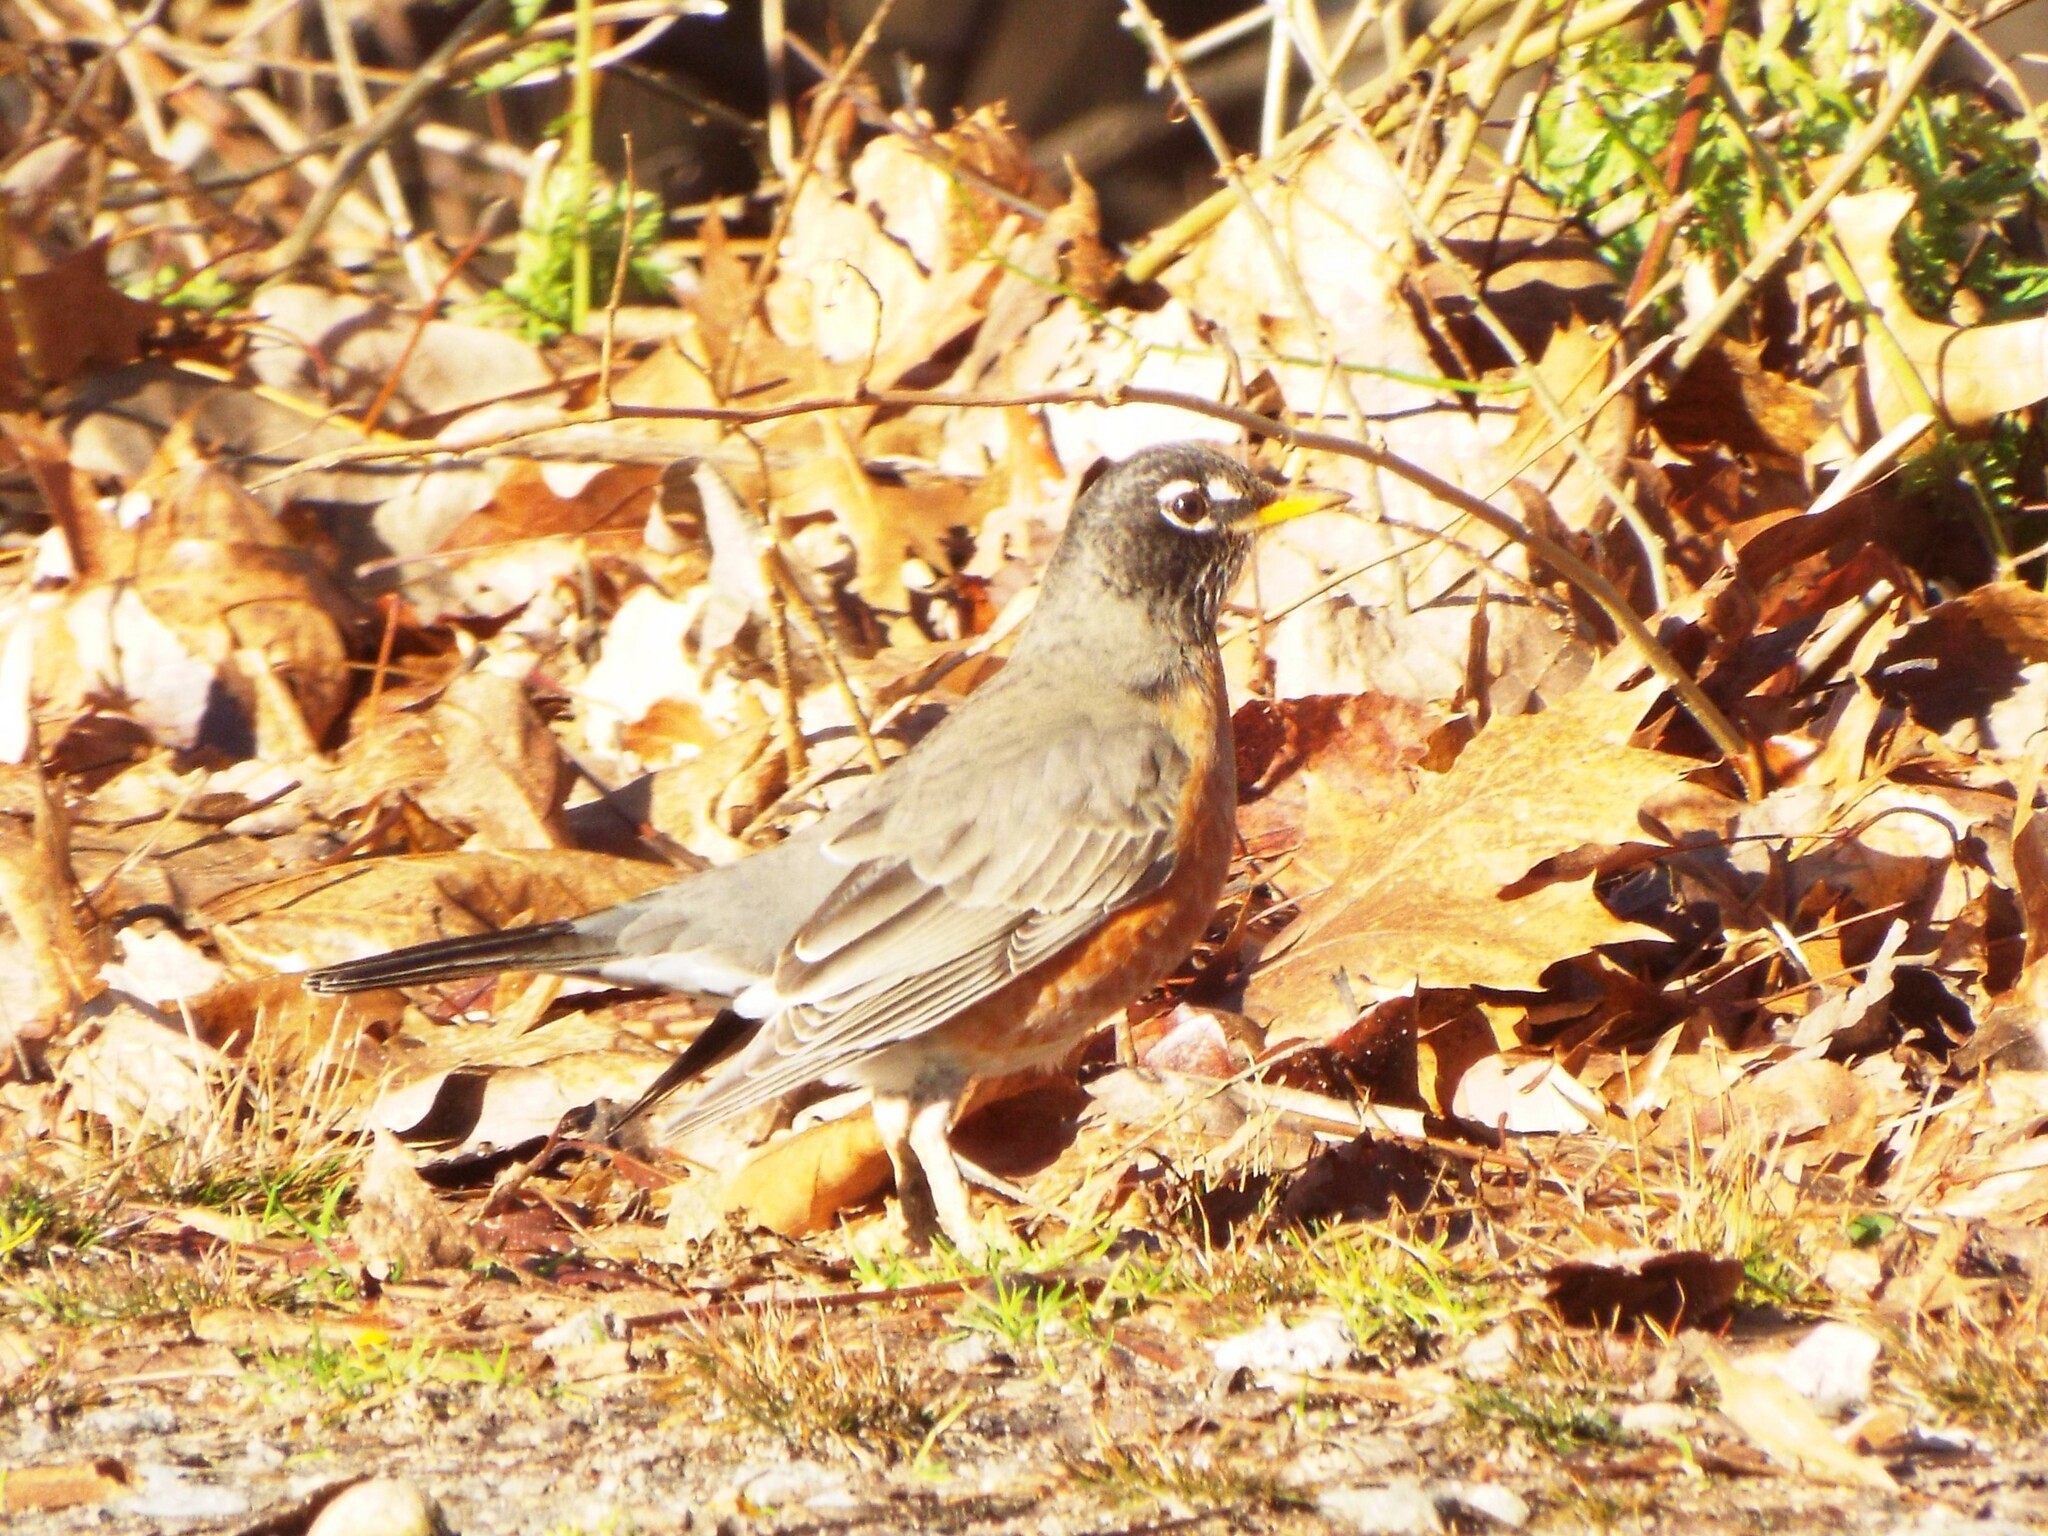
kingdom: Animalia
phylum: Chordata
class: Aves
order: Passeriformes
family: Turdidae
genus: Turdus
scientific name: Turdus migratorius
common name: American robin
